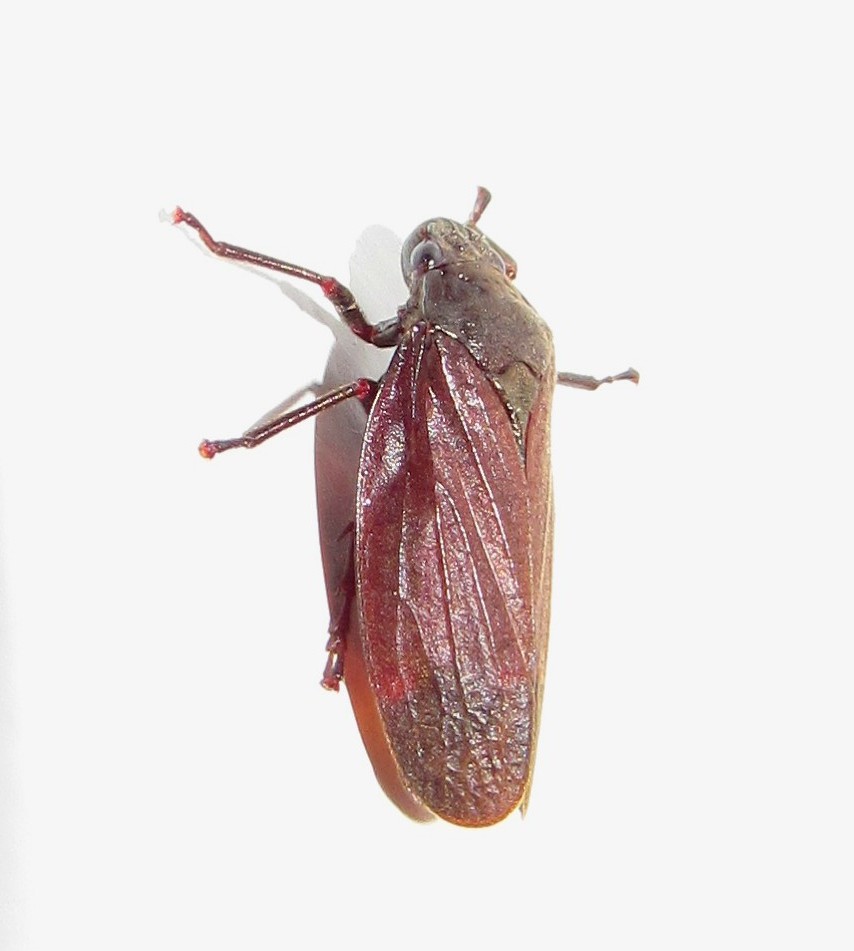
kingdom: Animalia
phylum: Arthropoda
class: Insecta
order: Hemiptera
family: Cercopidae
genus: Mahanarva
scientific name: Mahanarva posticata
